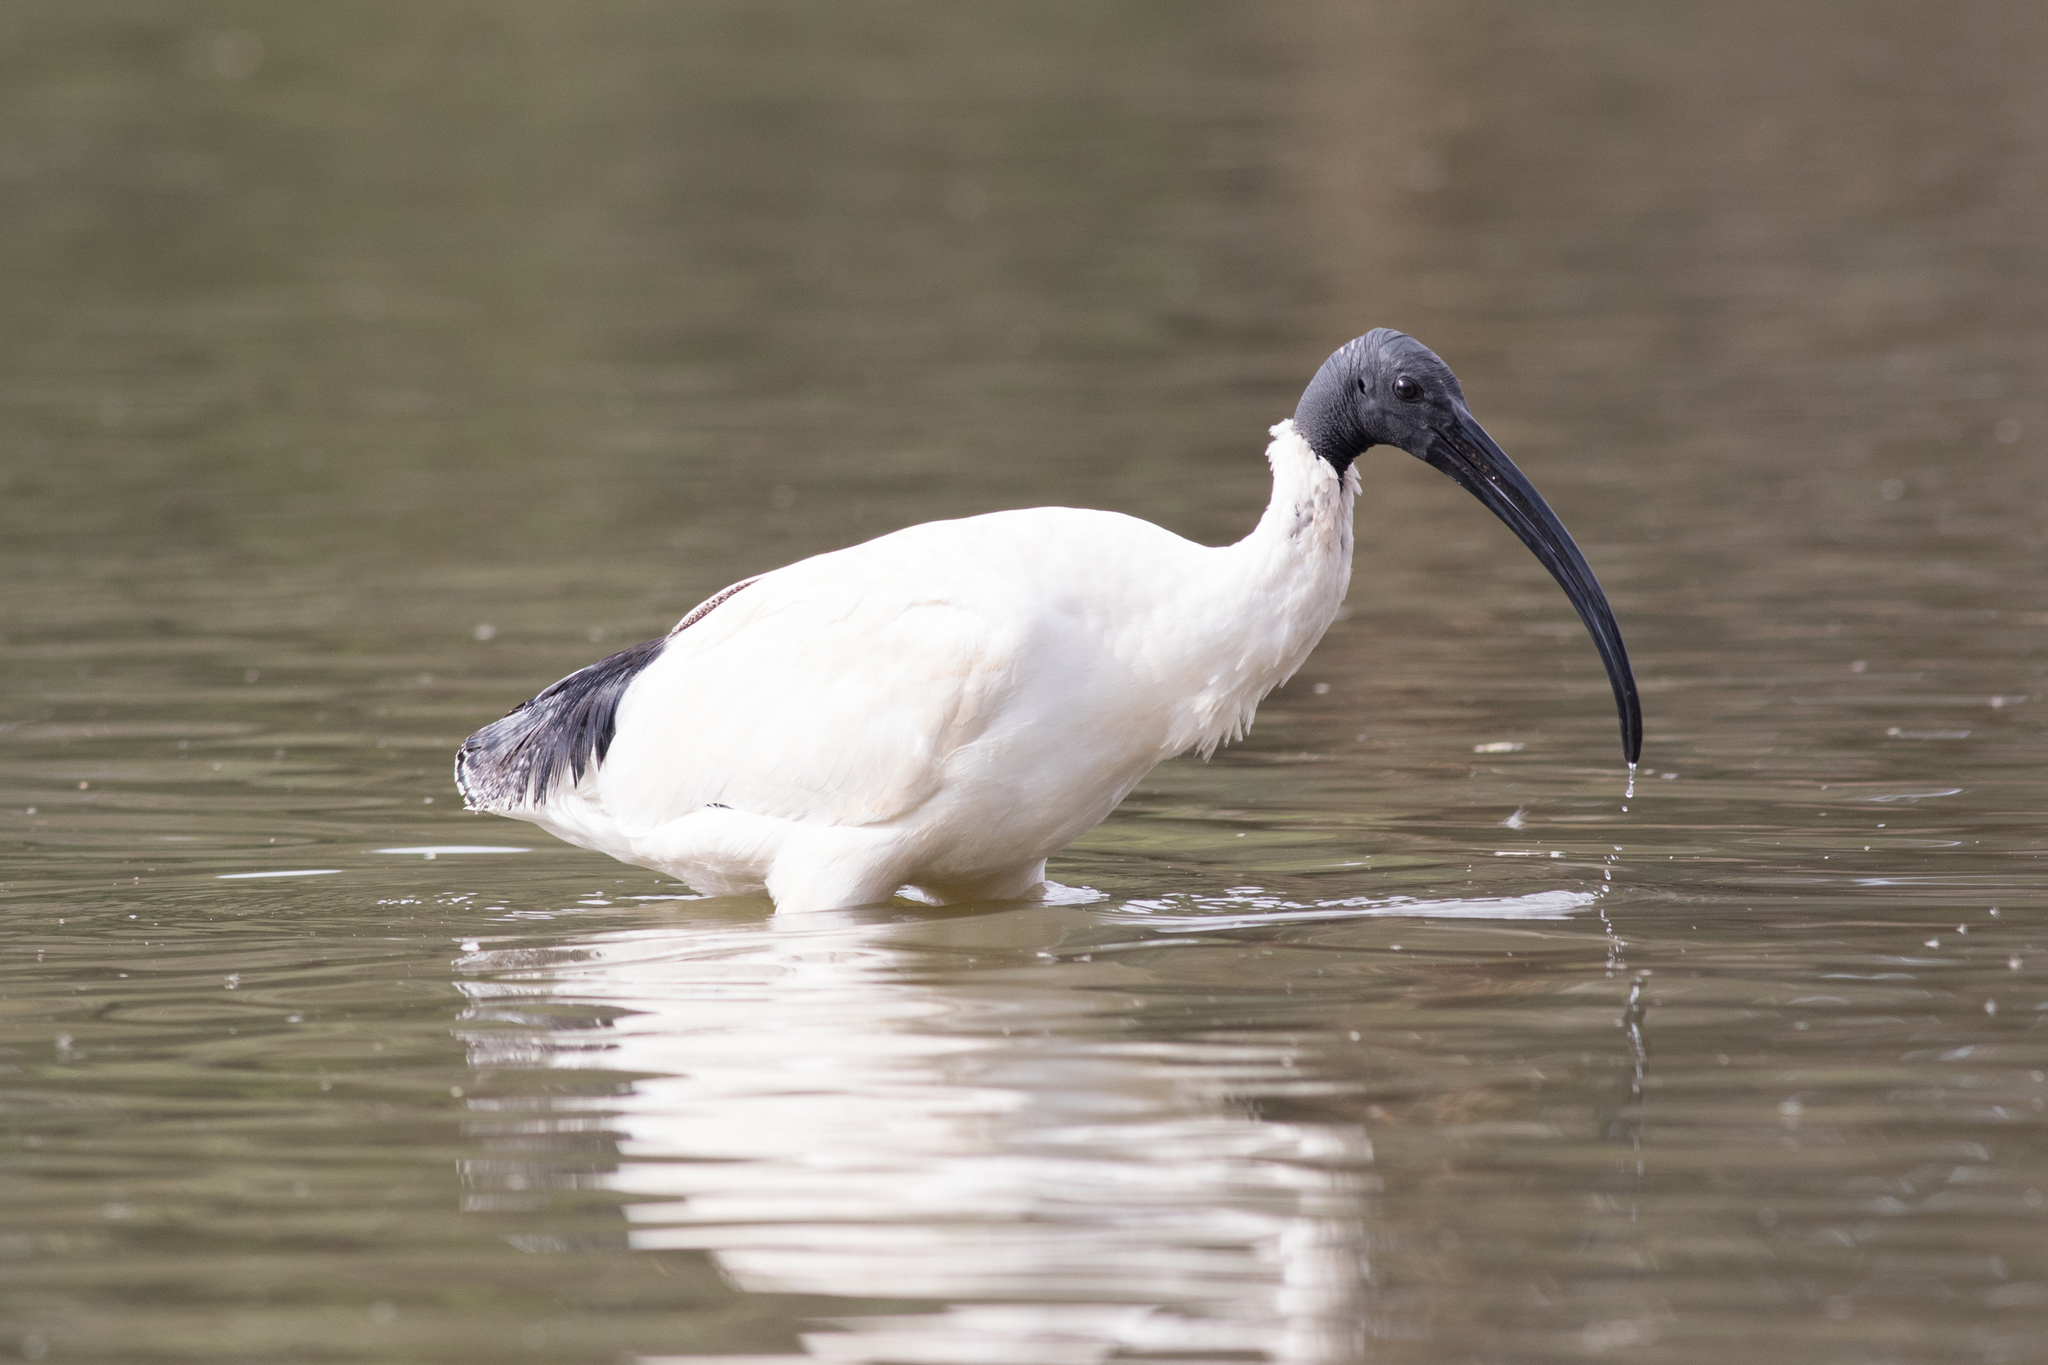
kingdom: Animalia
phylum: Chordata
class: Aves
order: Pelecaniformes
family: Threskiornithidae
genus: Threskiornis
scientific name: Threskiornis molucca
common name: Australian white ibis
